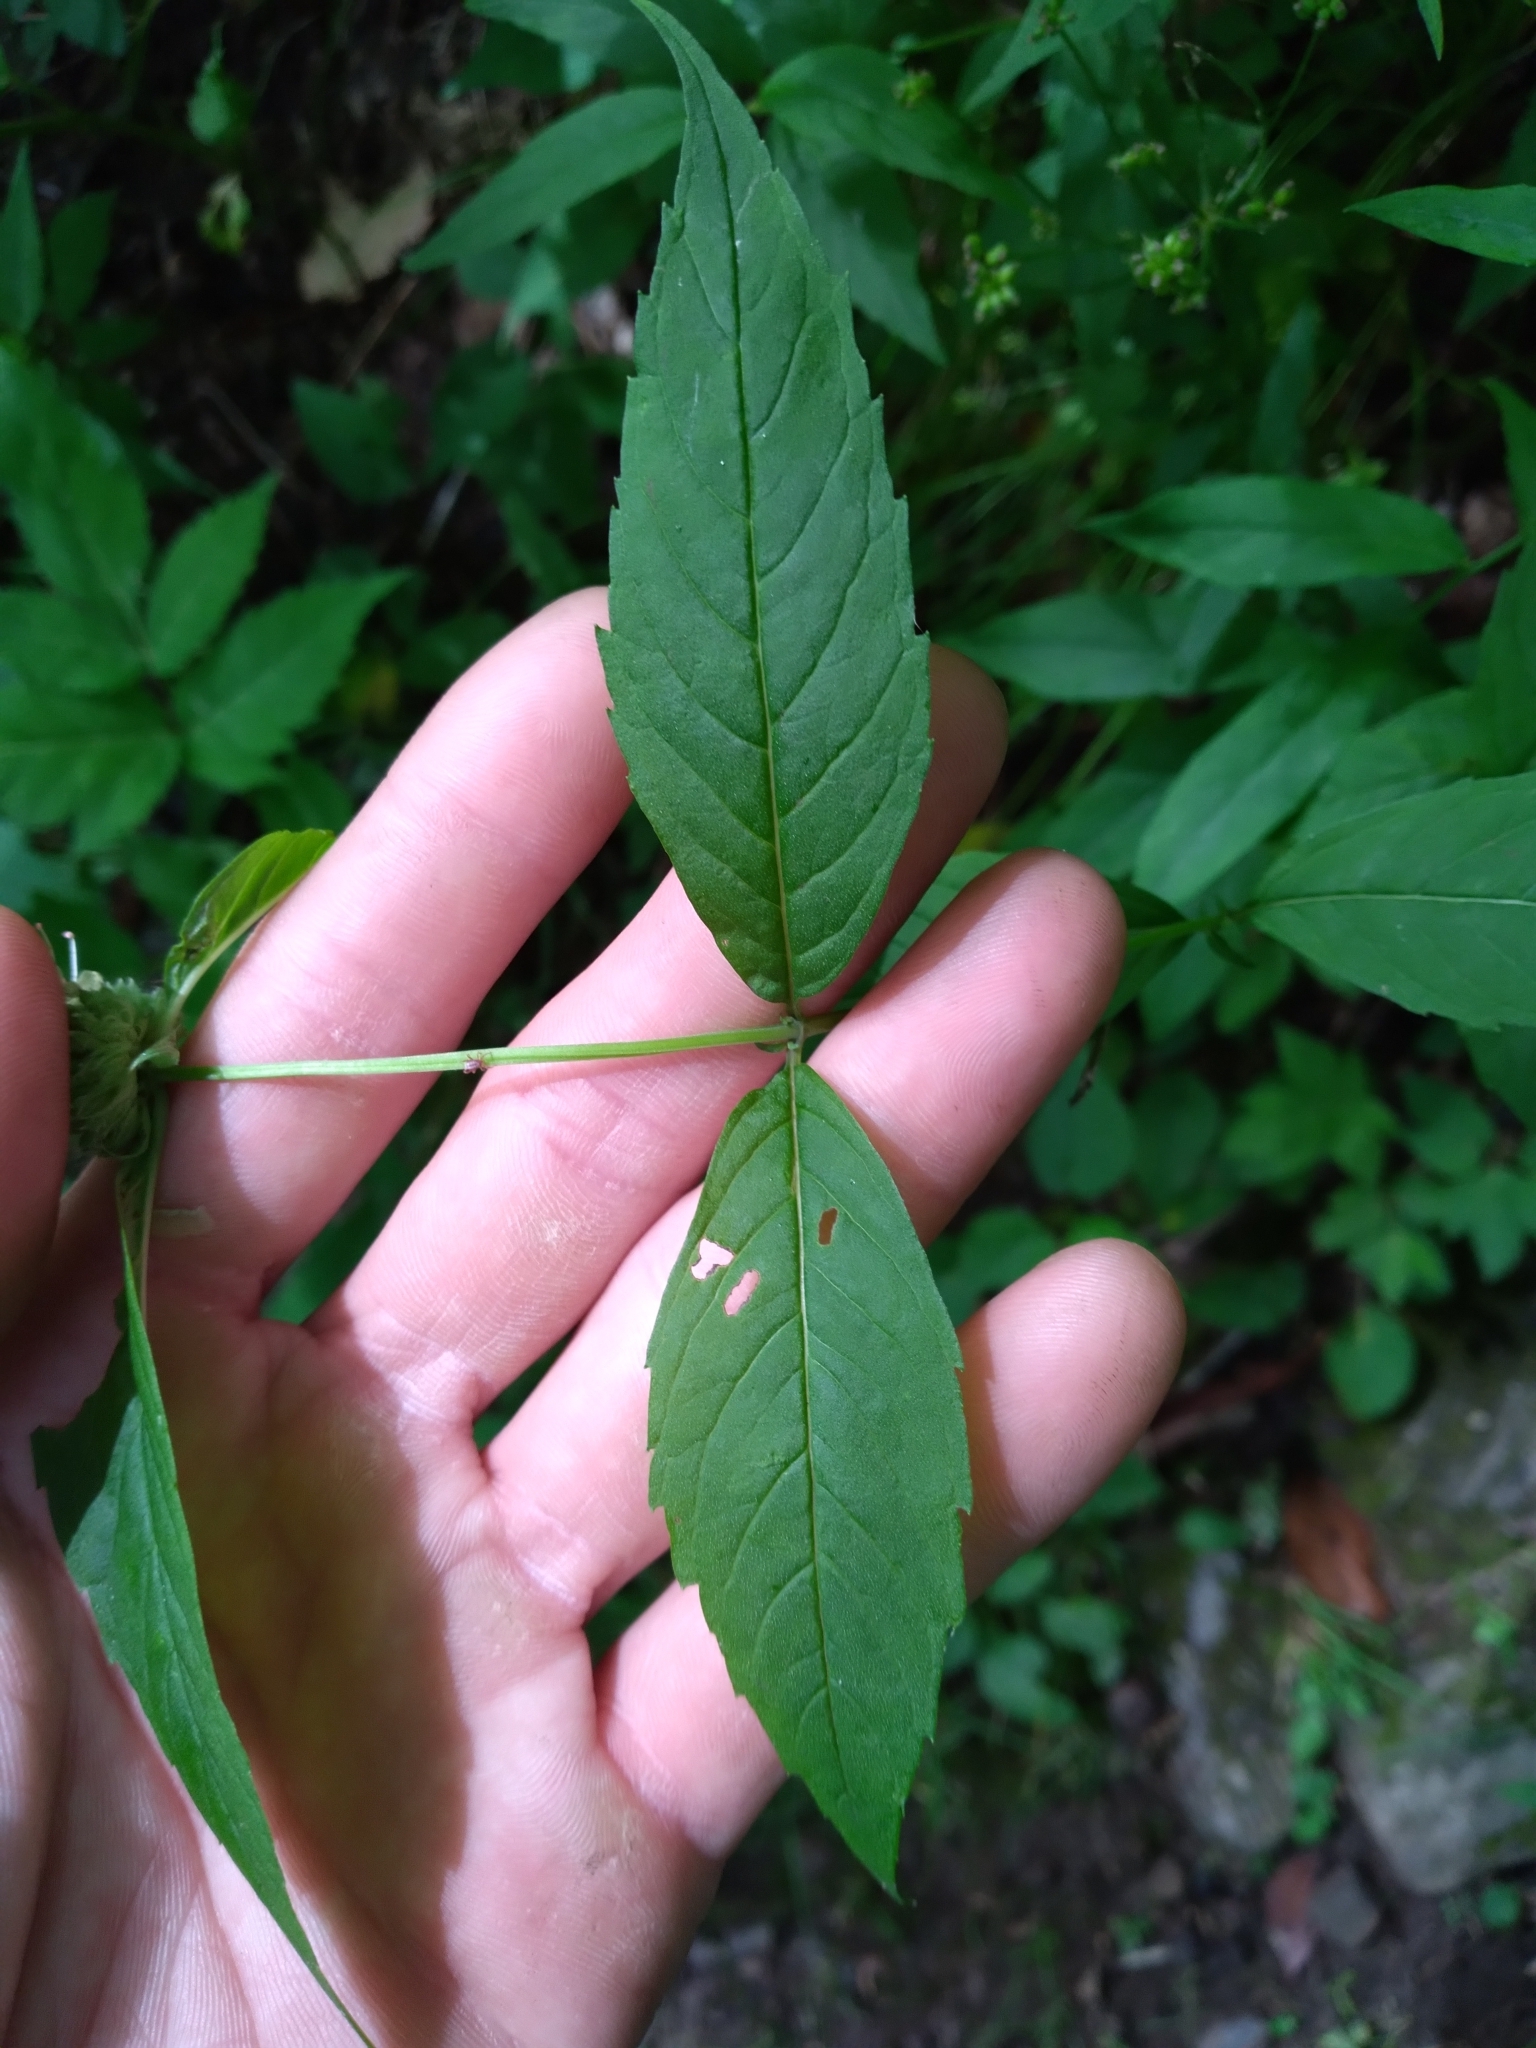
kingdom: Plantae
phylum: Tracheophyta
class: Magnoliopsida
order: Lamiales
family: Lamiaceae
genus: Monarda
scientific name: Monarda clinopodia
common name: Basil beebalm
